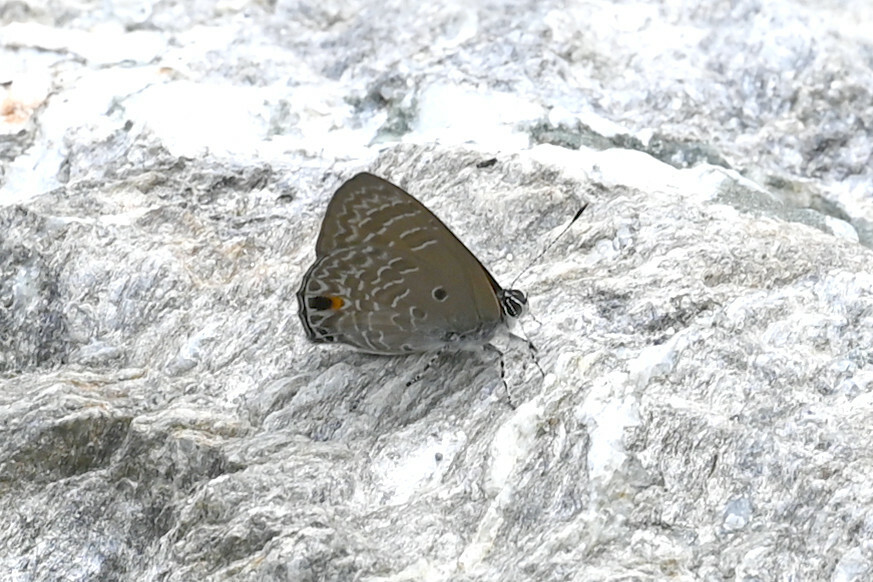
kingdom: Animalia
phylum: Arthropoda
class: Insecta
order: Lepidoptera
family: Lycaenidae
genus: Anthene
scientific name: Anthene lycaenina
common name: Pointed ciliate blue
